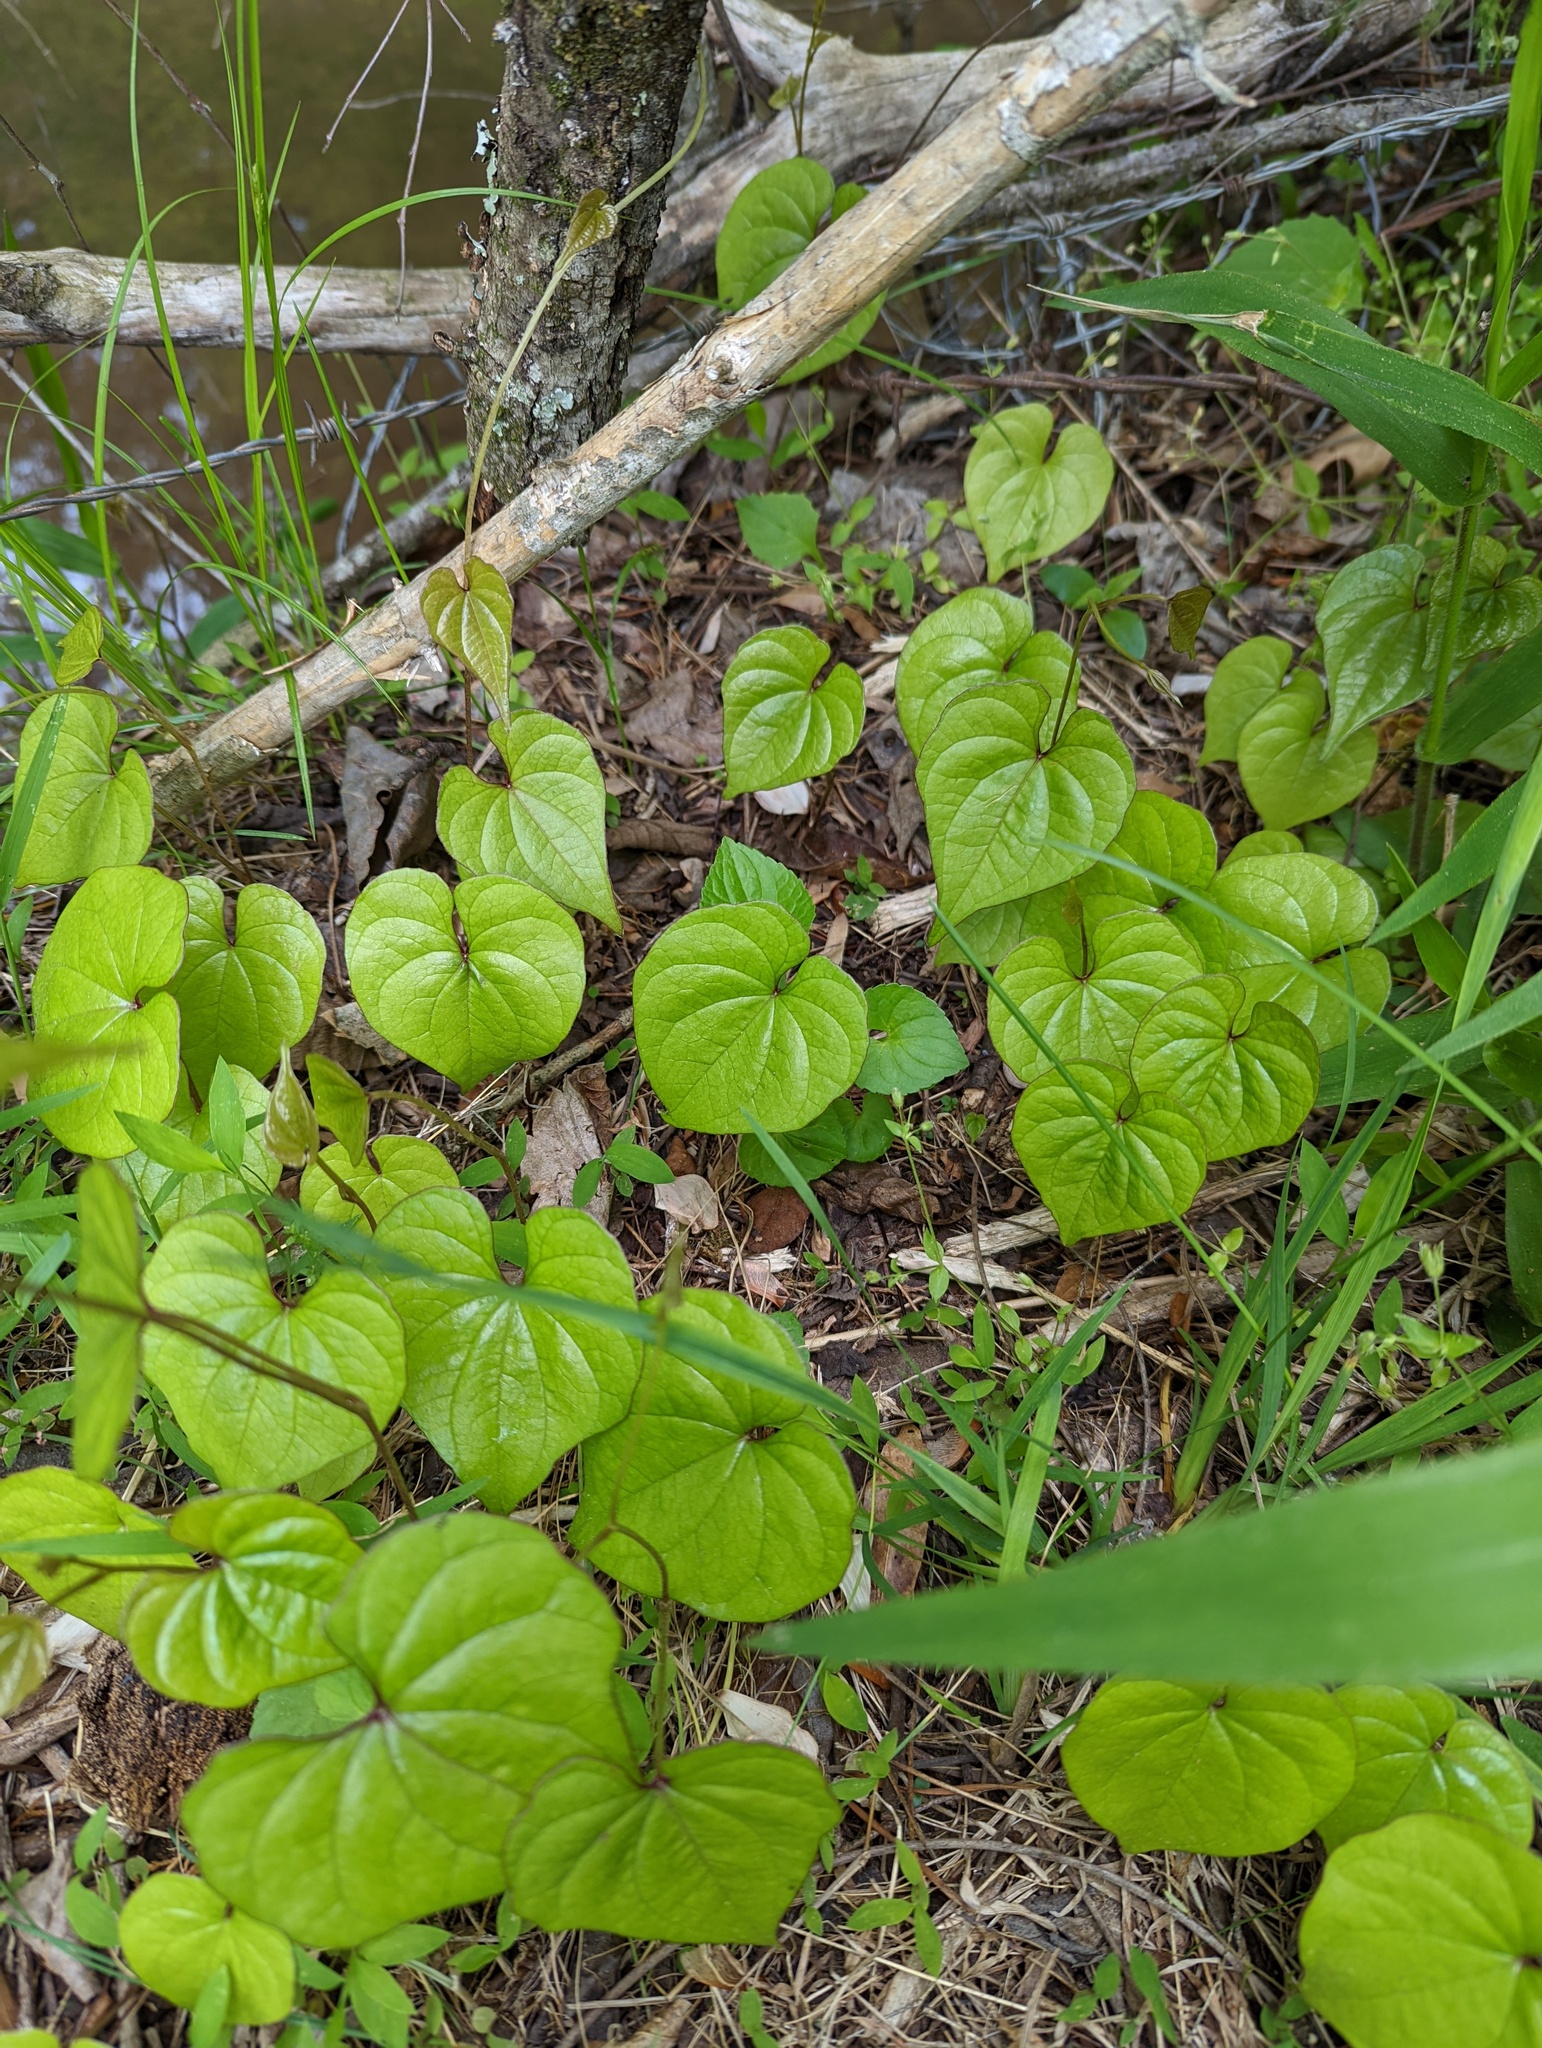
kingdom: Plantae
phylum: Tracheophyta
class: Liliopsida
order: Dioscoreales
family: Dioscoreaceae
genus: Dioscorea
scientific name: Dioscorea polystachya
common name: Chinese yam
